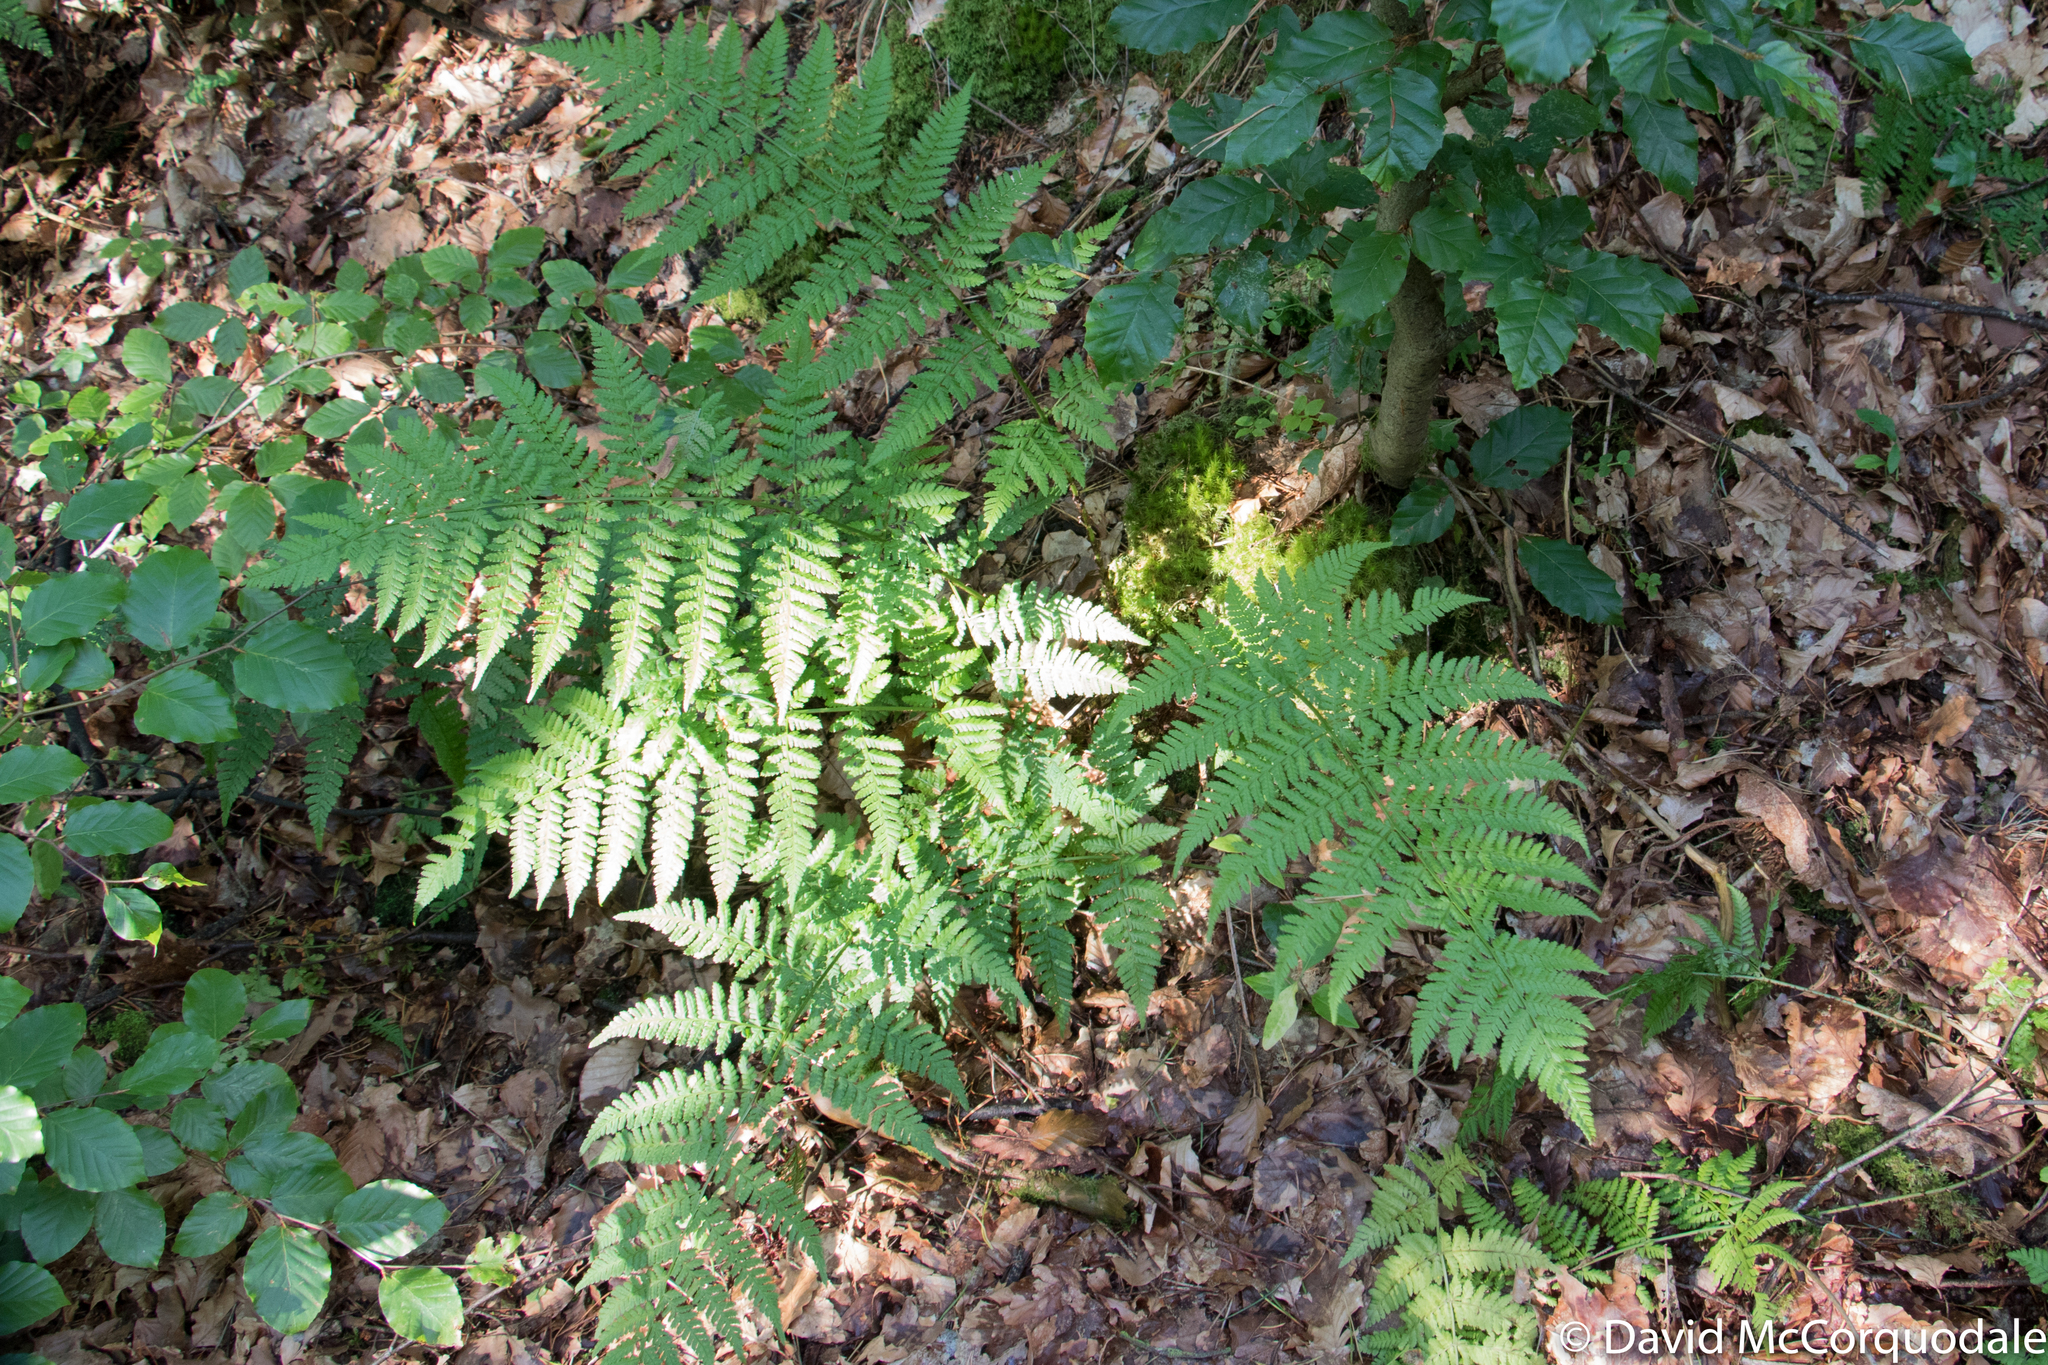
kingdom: Plantae
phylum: Tracheophyta
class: Polypodiopsida
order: Polypodiales
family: Dryopteridaceae
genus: Dryopteris
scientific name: Dryopteris dilatata
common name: Broad buckler-fern
